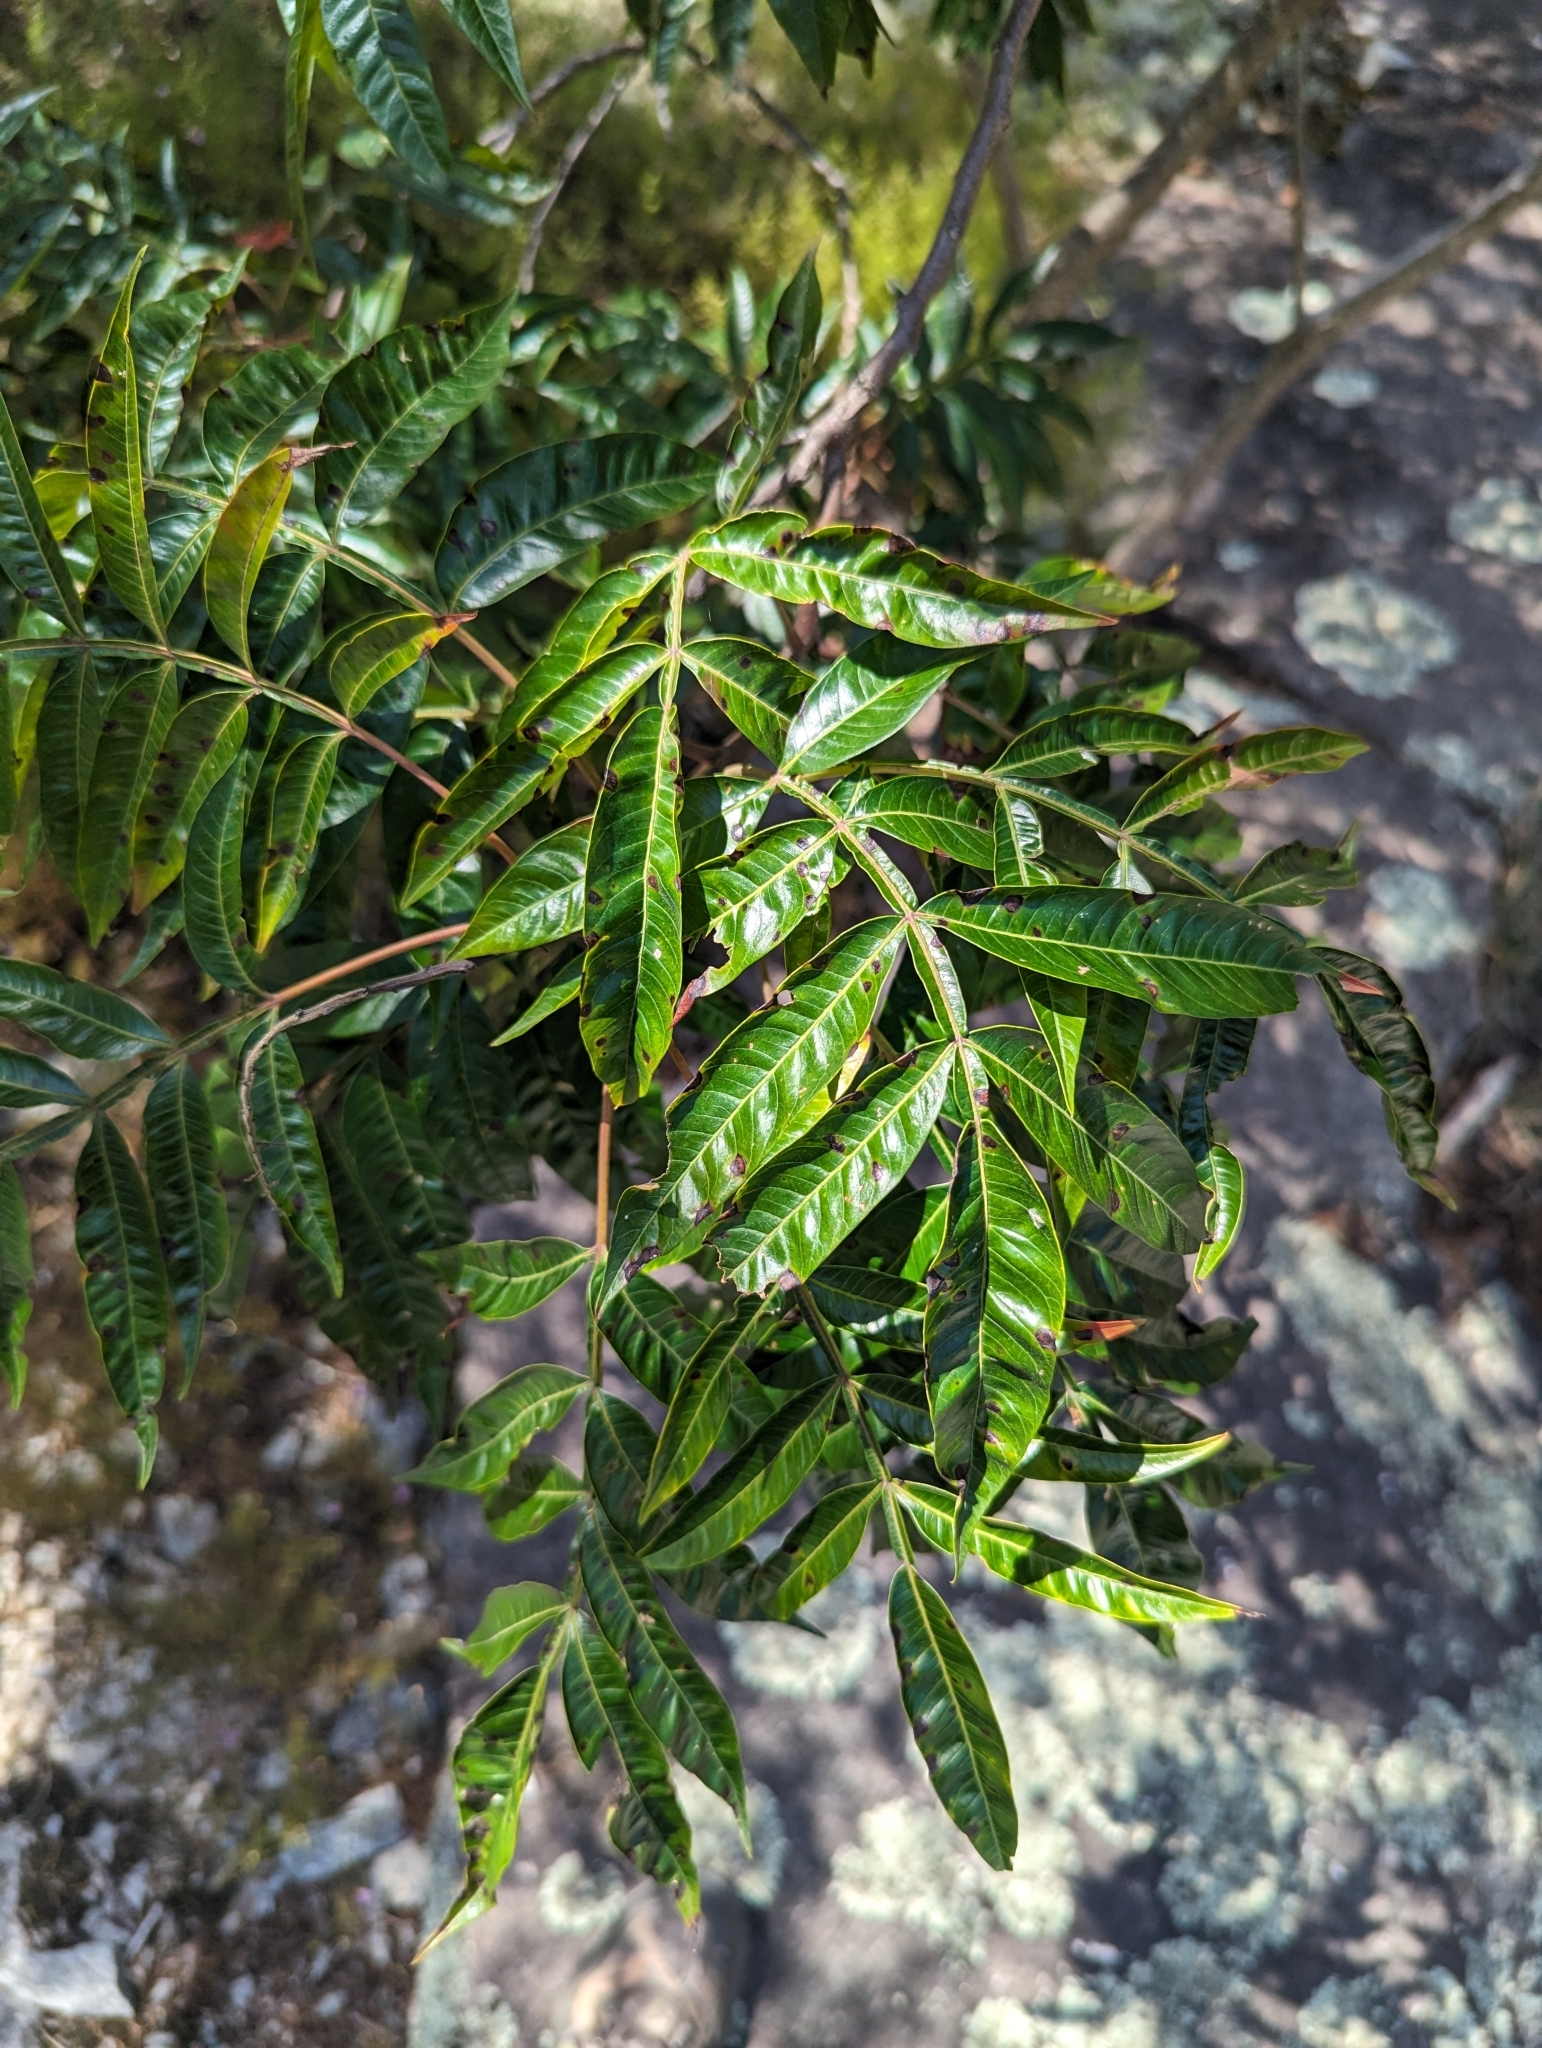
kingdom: Plantae
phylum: Tracheophyta
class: Magnoliopsida
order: Sapindales
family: Anacardiaceae
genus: Rhus
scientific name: Rhus copallina
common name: Shining sumac
